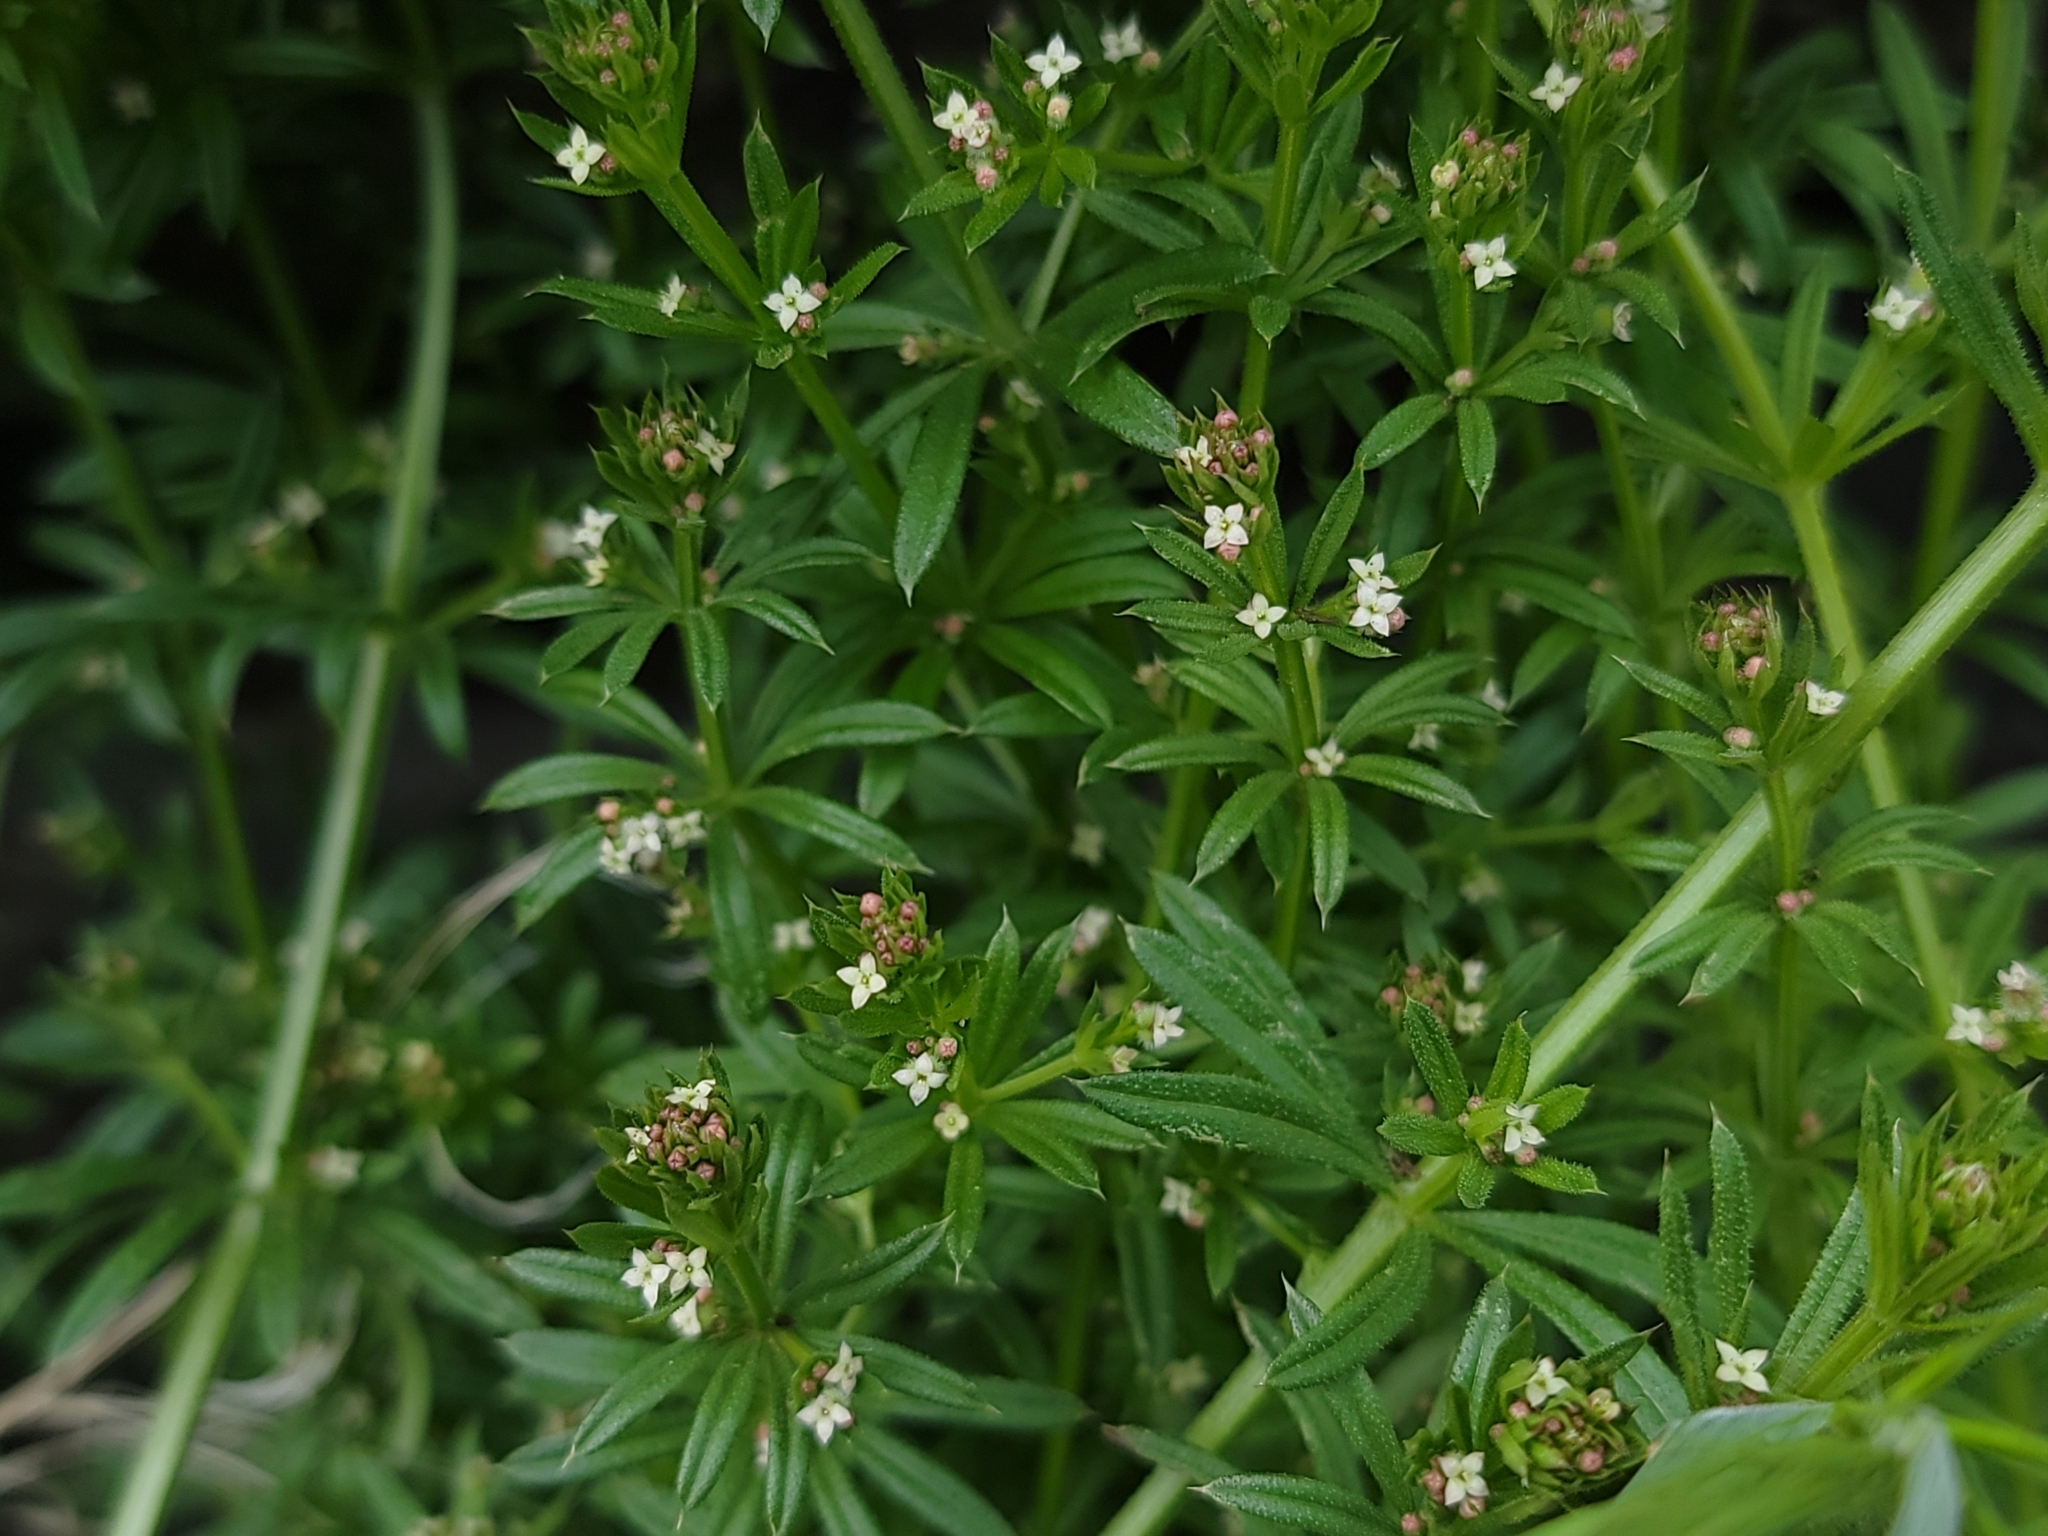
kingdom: Plantae
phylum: Tracheophyta
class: Magnoliopsida
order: Gentianales
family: Rubiaceae
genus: Galium
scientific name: Galium aparine
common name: Cleavers
